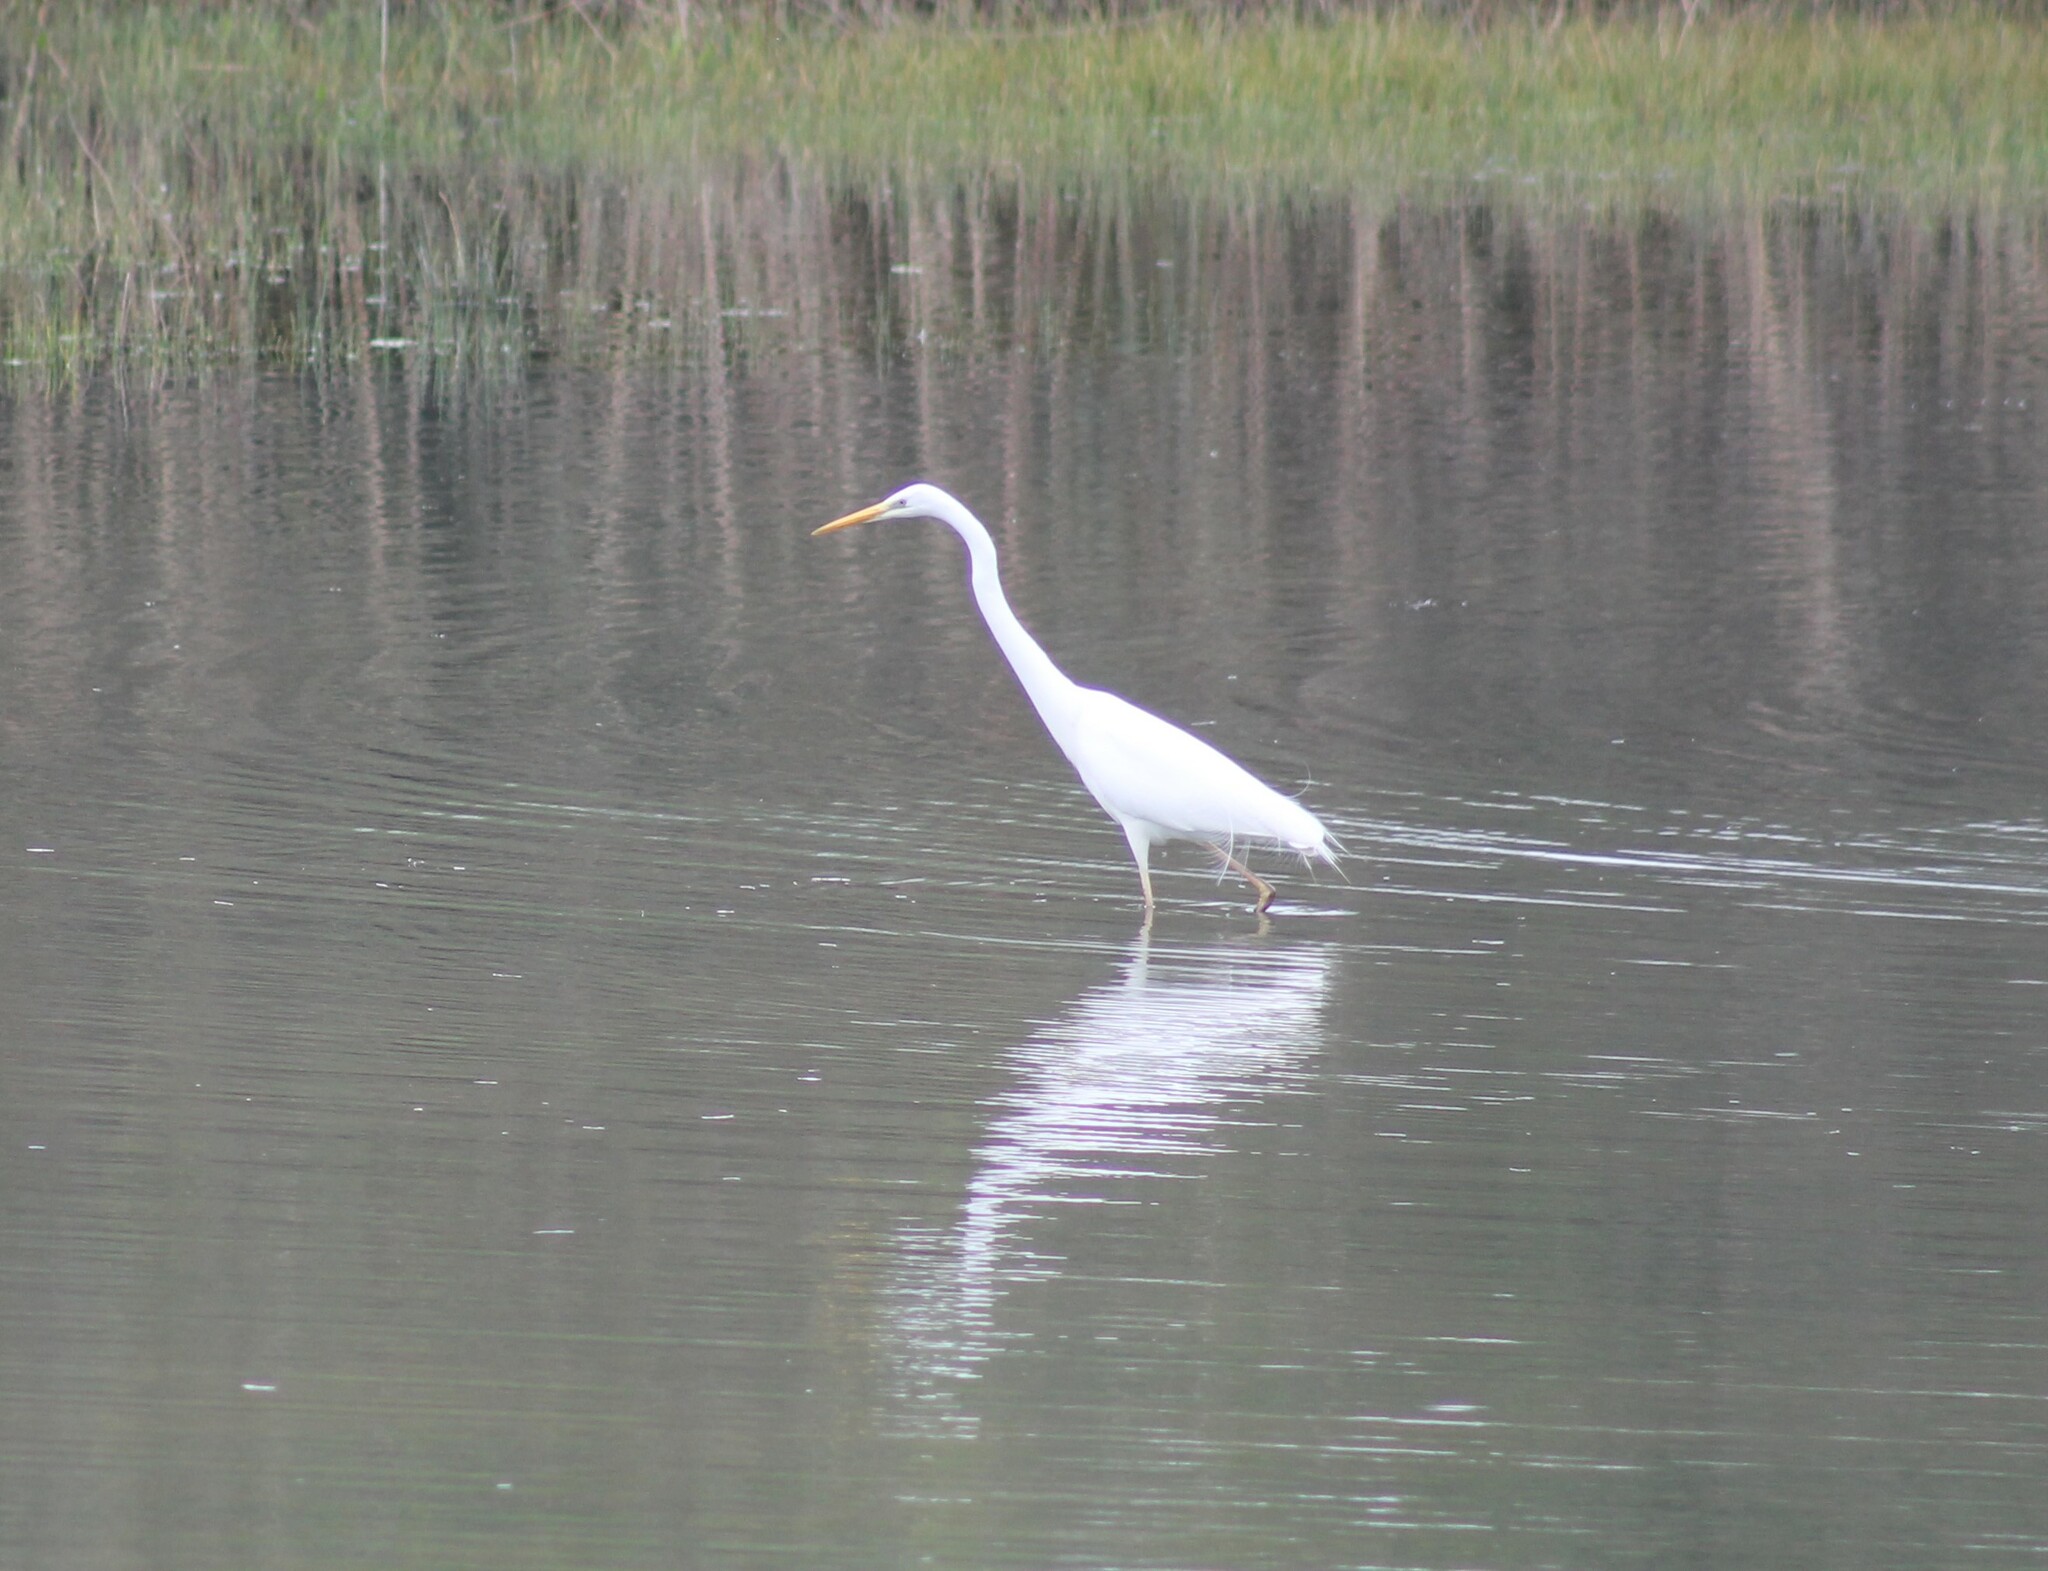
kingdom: Animalia
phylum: Chordata
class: Aves
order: Pelecaniformes
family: Ardeidae
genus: Ardea
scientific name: Ardea alba
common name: Great egret
